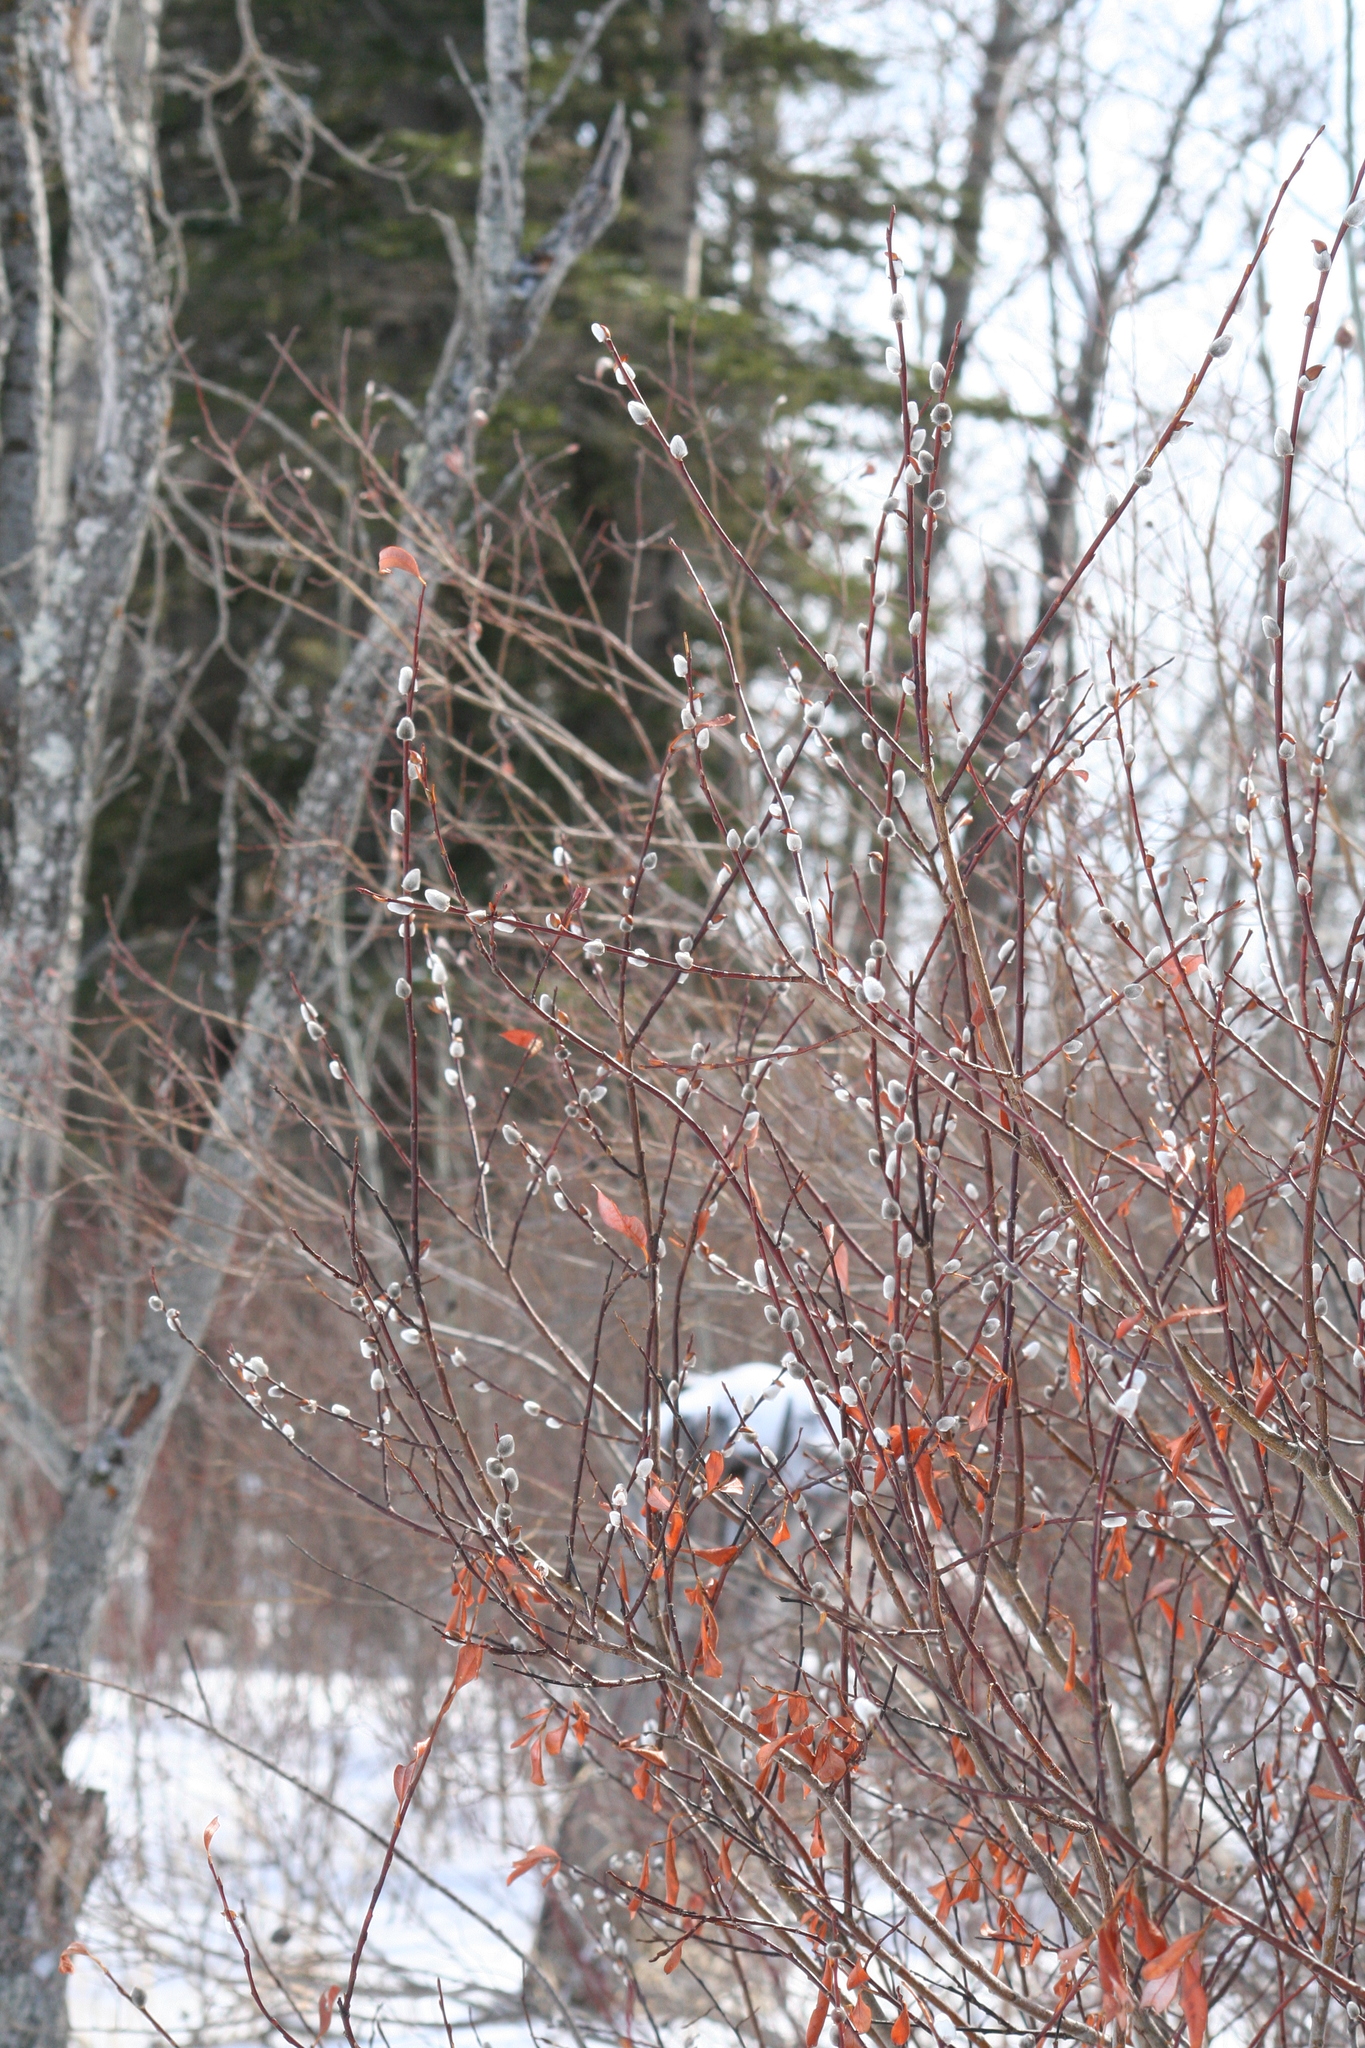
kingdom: Plantae
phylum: Tracheophyta
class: Magnoliopsida
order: Malpighiales
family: Salicaceae
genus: Salix
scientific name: Salix discolor
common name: Glaucous willow
